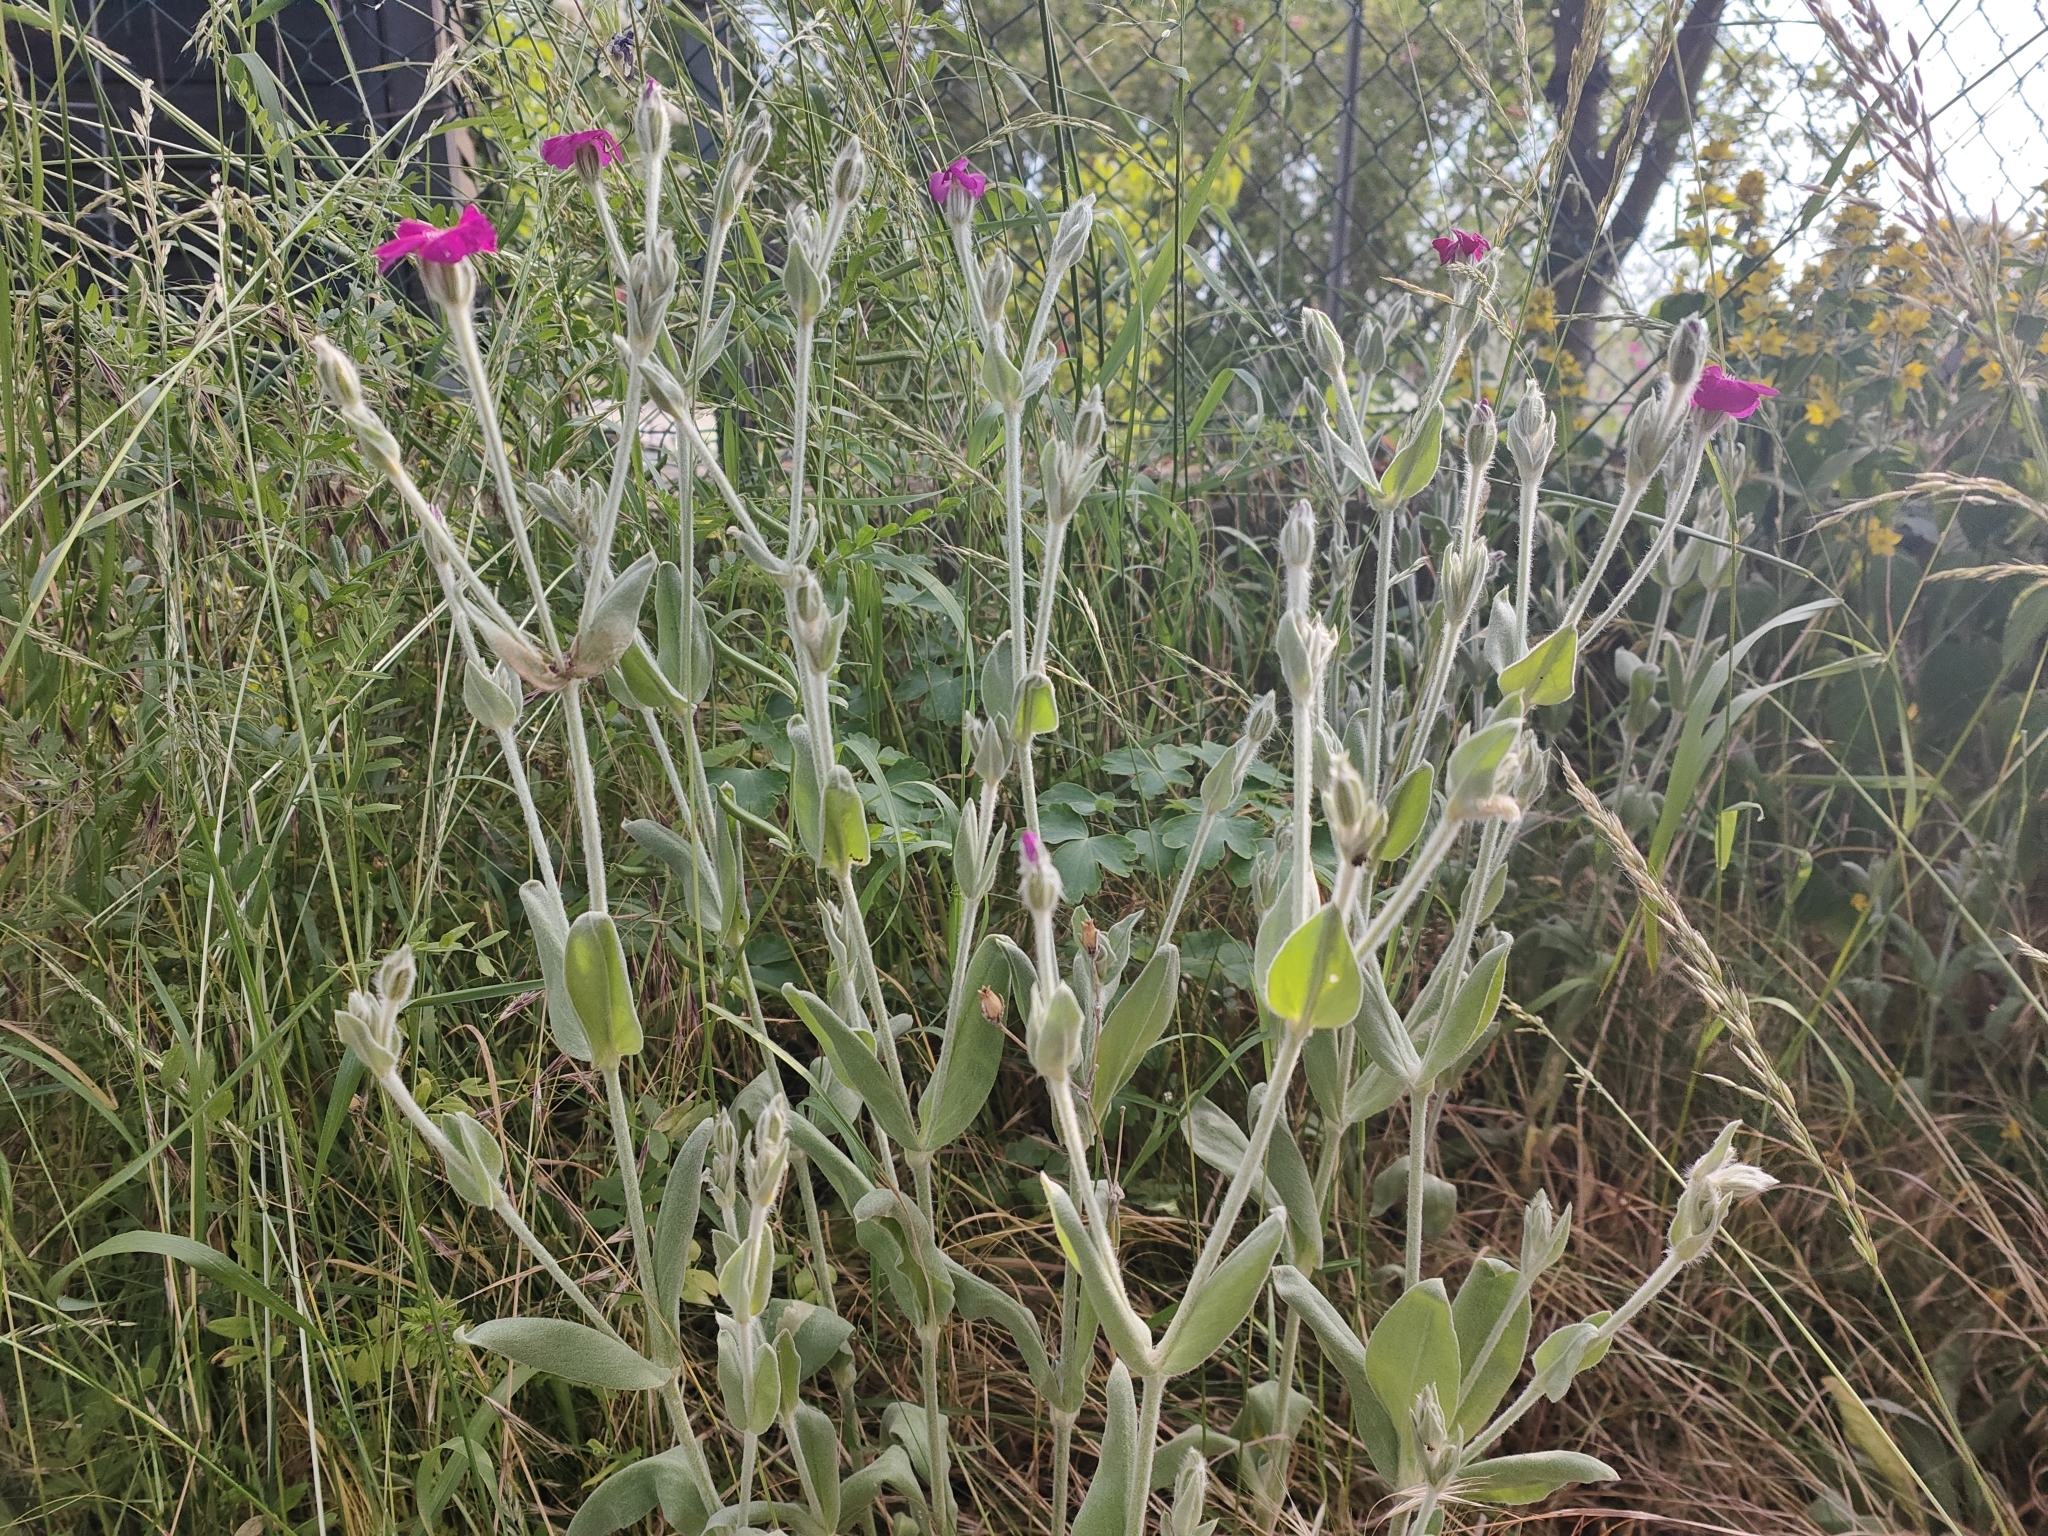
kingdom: Plantae
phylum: Tracheophyta
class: Magnoliopsida
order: Caryophyllales
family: Caryophyllaceae
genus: Silene
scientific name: Silene coronaria
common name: Rose campion
